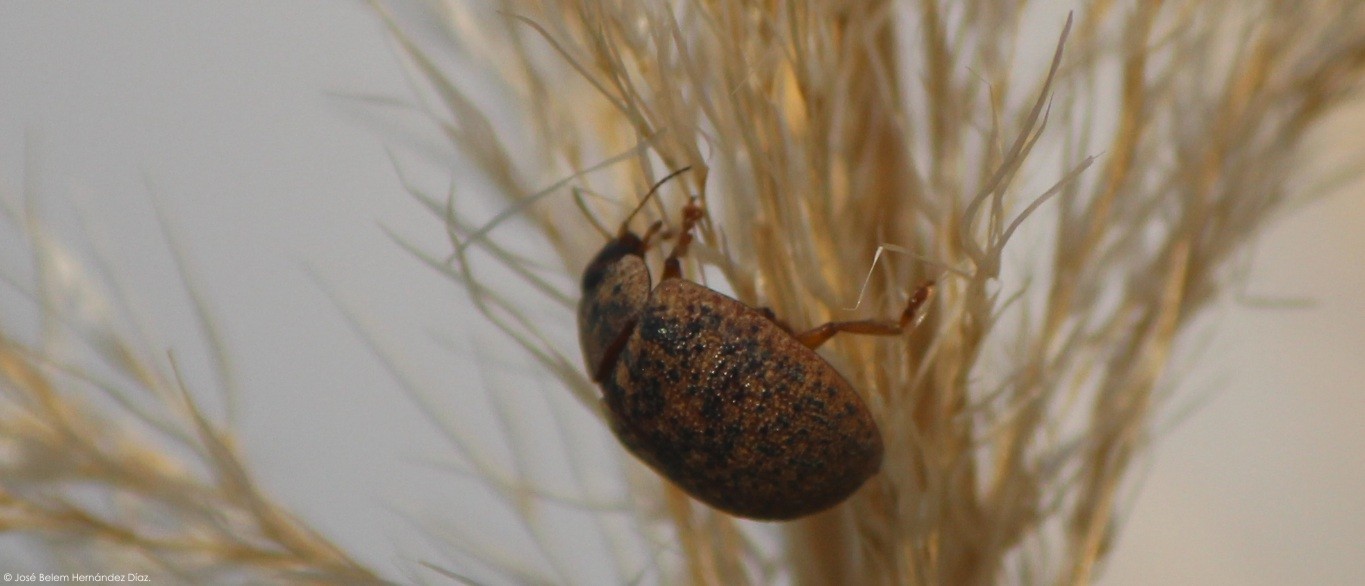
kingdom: Animalia
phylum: Arthropoda
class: Insecta
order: Coleoptera
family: Chrysomelidae
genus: Trachymela
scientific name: Trachymela sloanei
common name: Australian tortoise beetle
